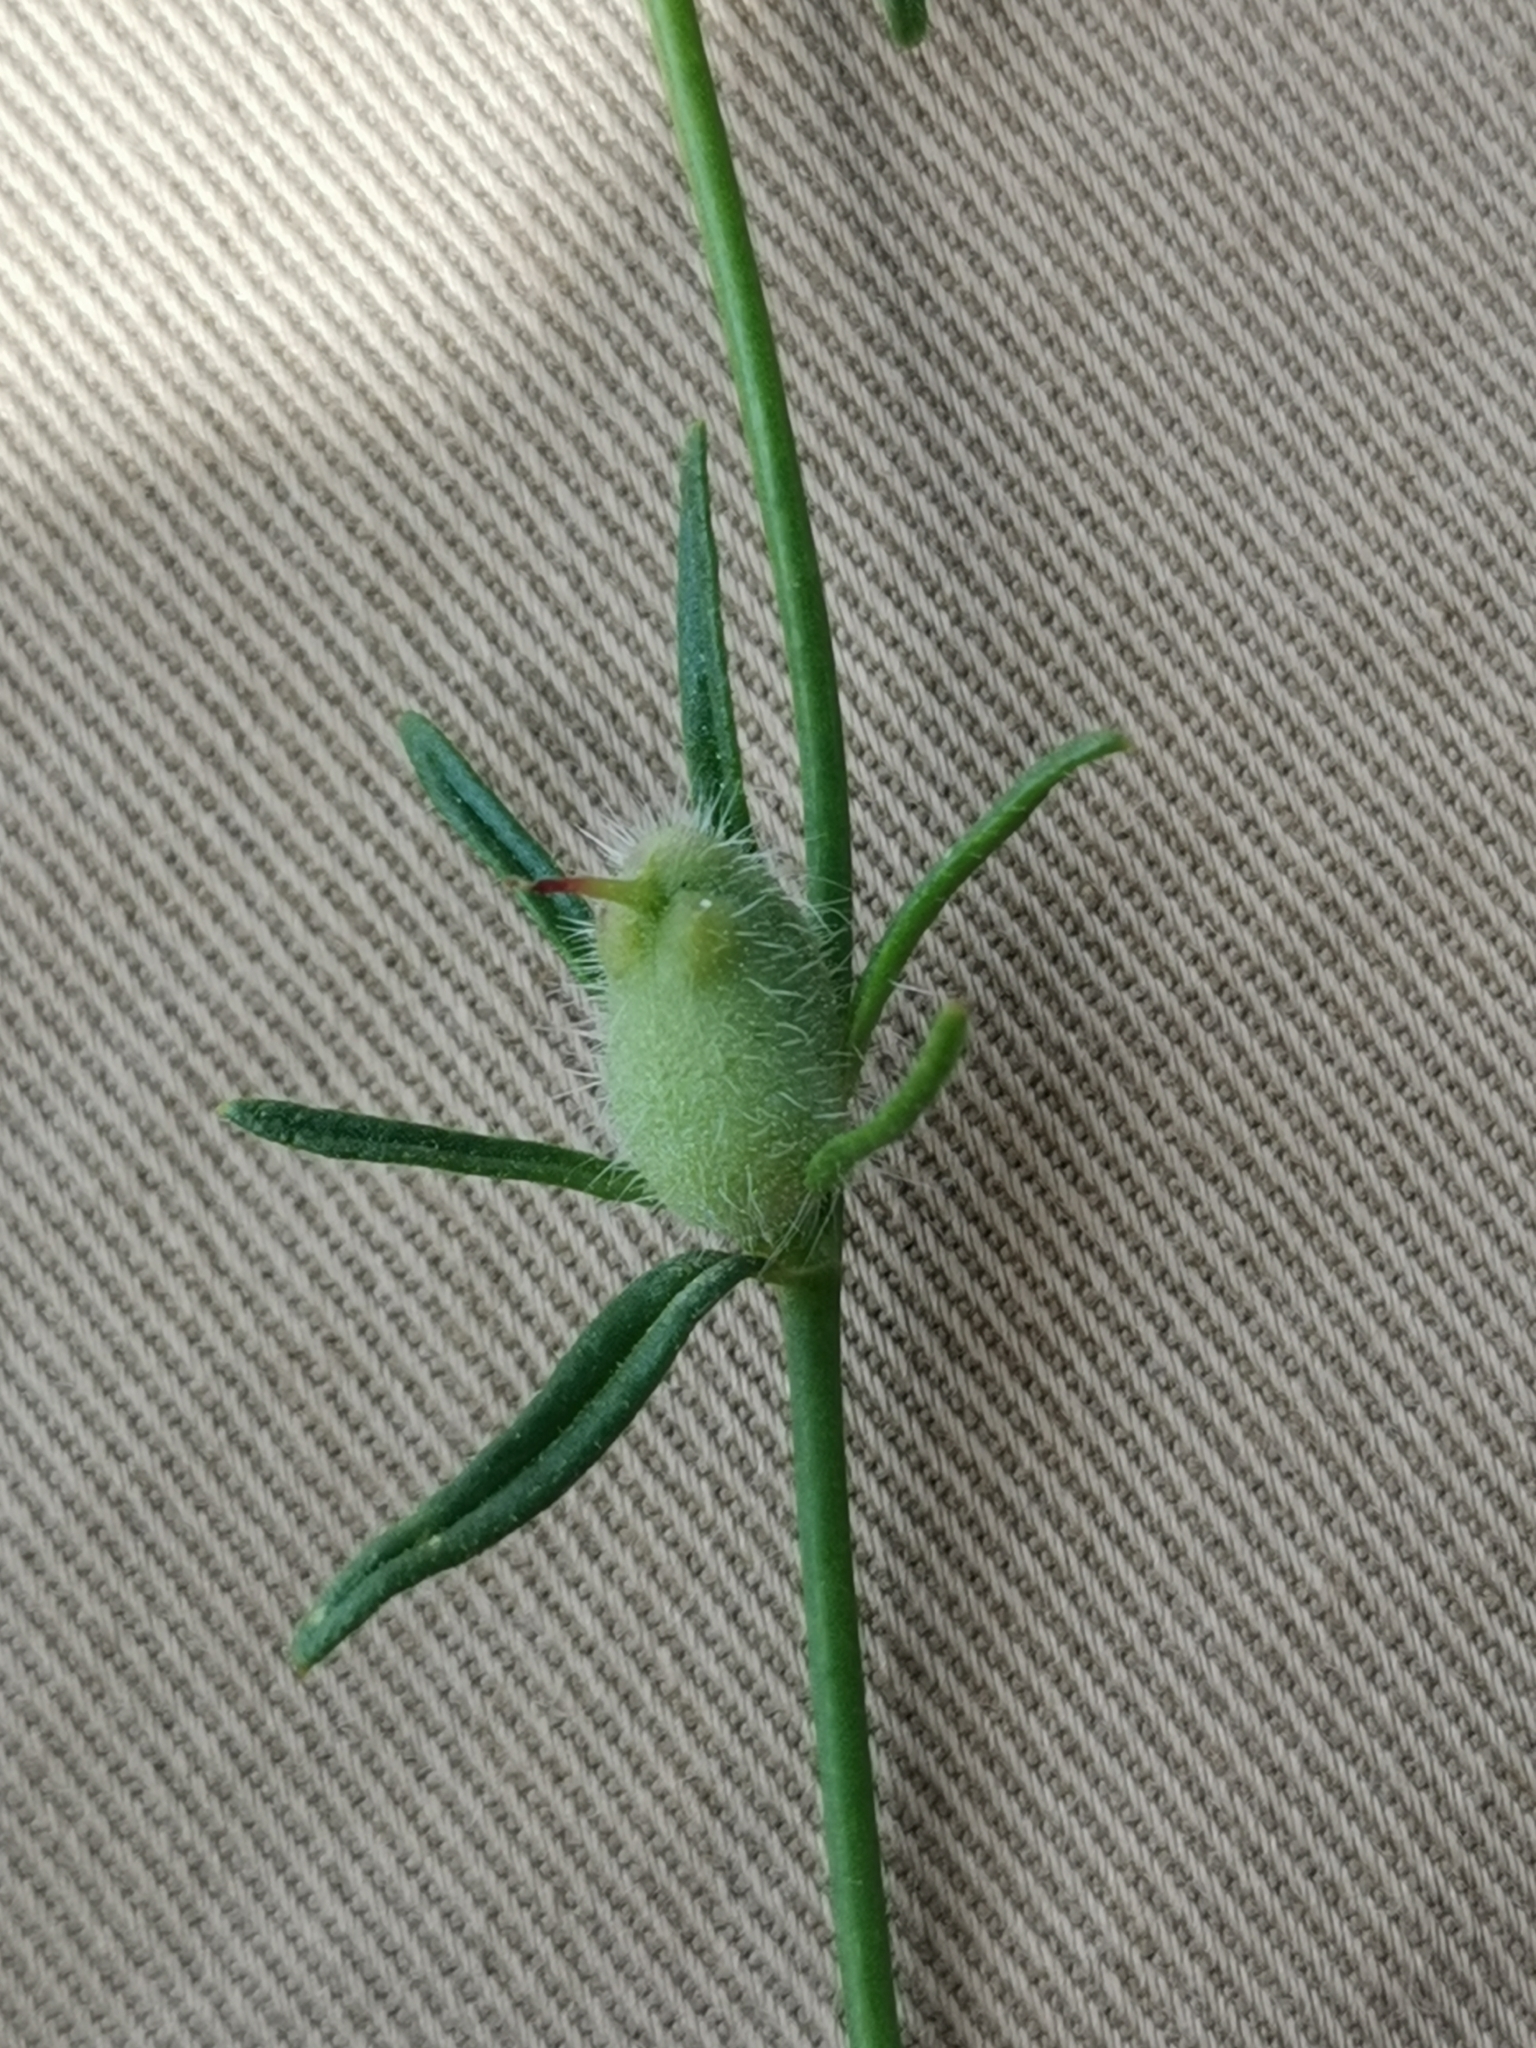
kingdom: Plantae
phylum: Tracheophyta
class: Magnoliopsida
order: Lamiales
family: Plantaginaceae
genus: Misopates
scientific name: Misopates orontium
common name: Weasel's-snout
